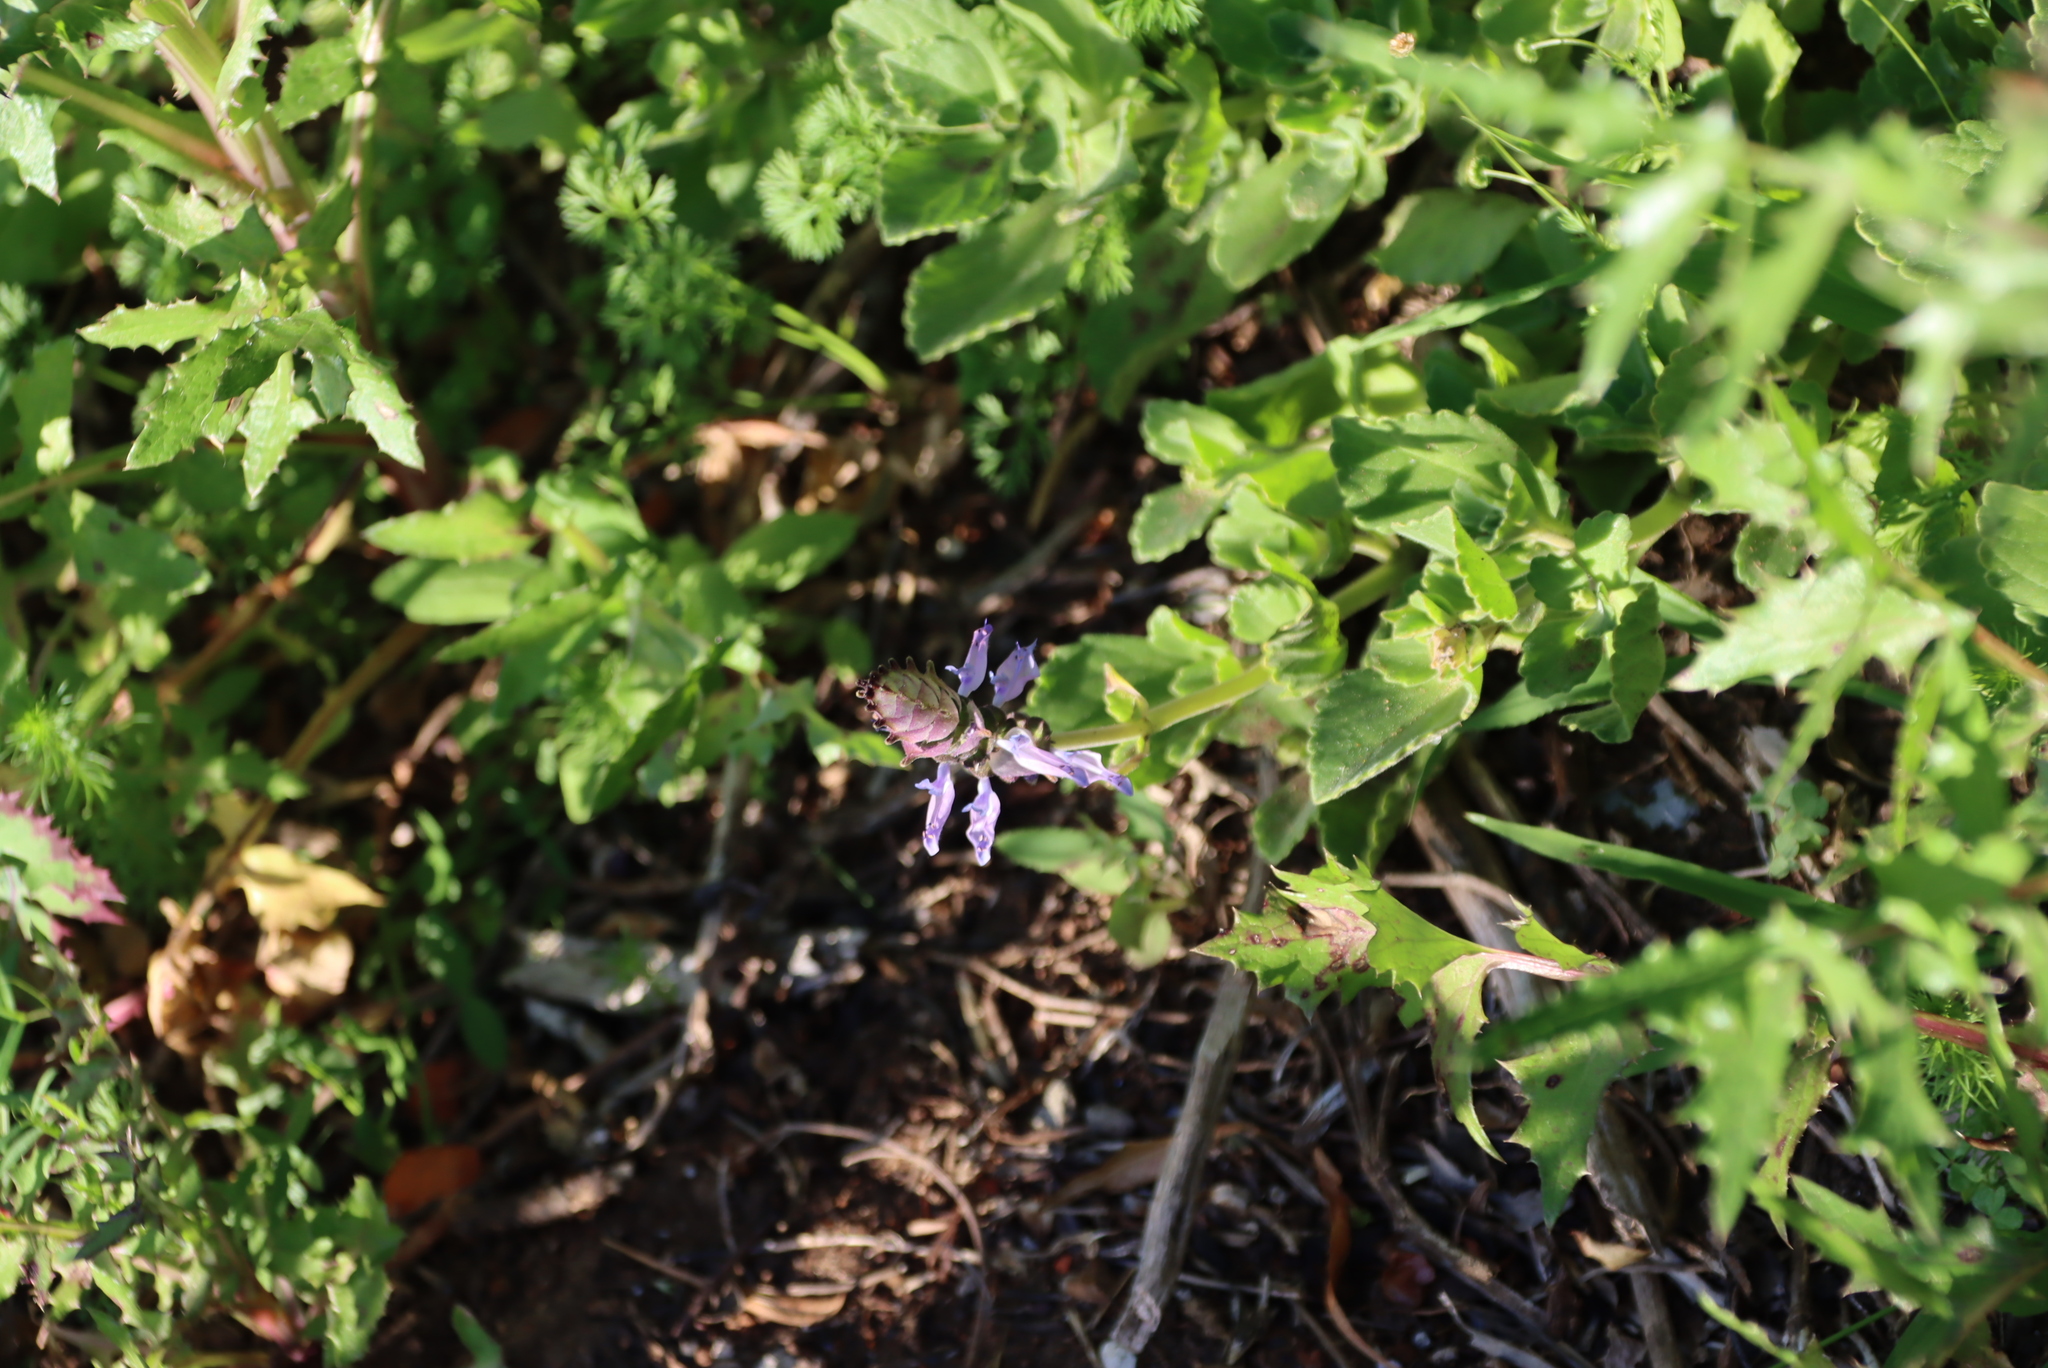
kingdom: Plantae
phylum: Tracheophyta
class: Magnoliopsida
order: Lamiales
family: Lamiaceae
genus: Coleus
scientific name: Coleus neochilus
